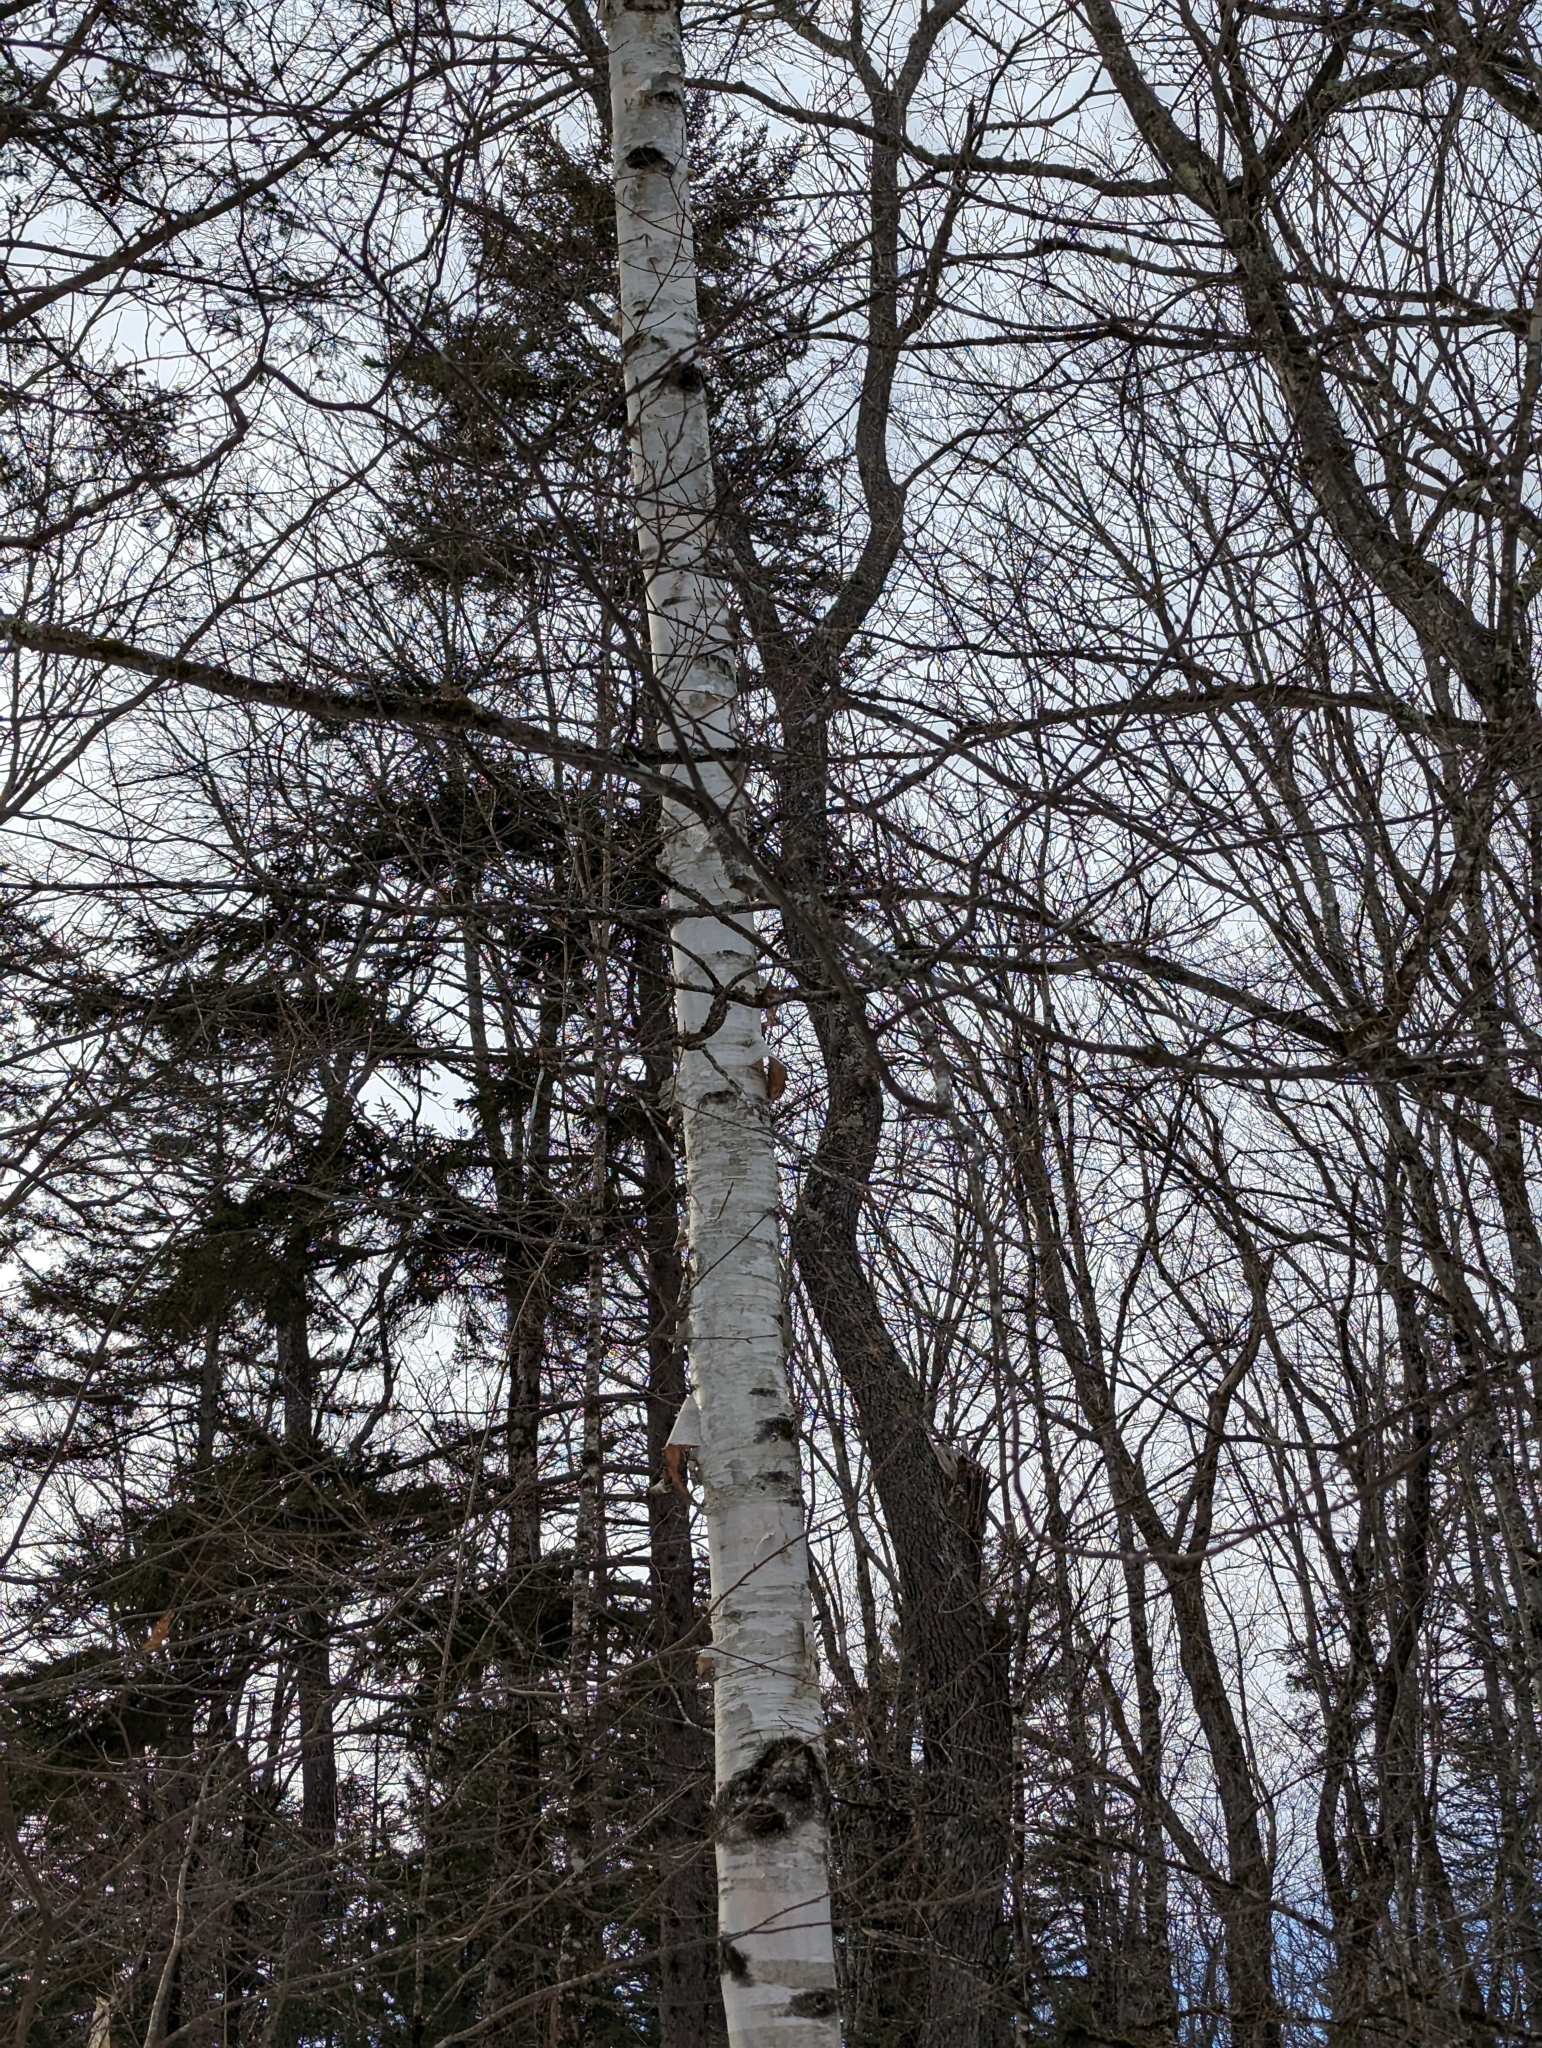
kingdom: Plantae
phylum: Tracheophyta
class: Magnoliopsida
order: Fagales
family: Betulaceae
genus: Betula
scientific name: Betula papyrifera
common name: Paper birch
